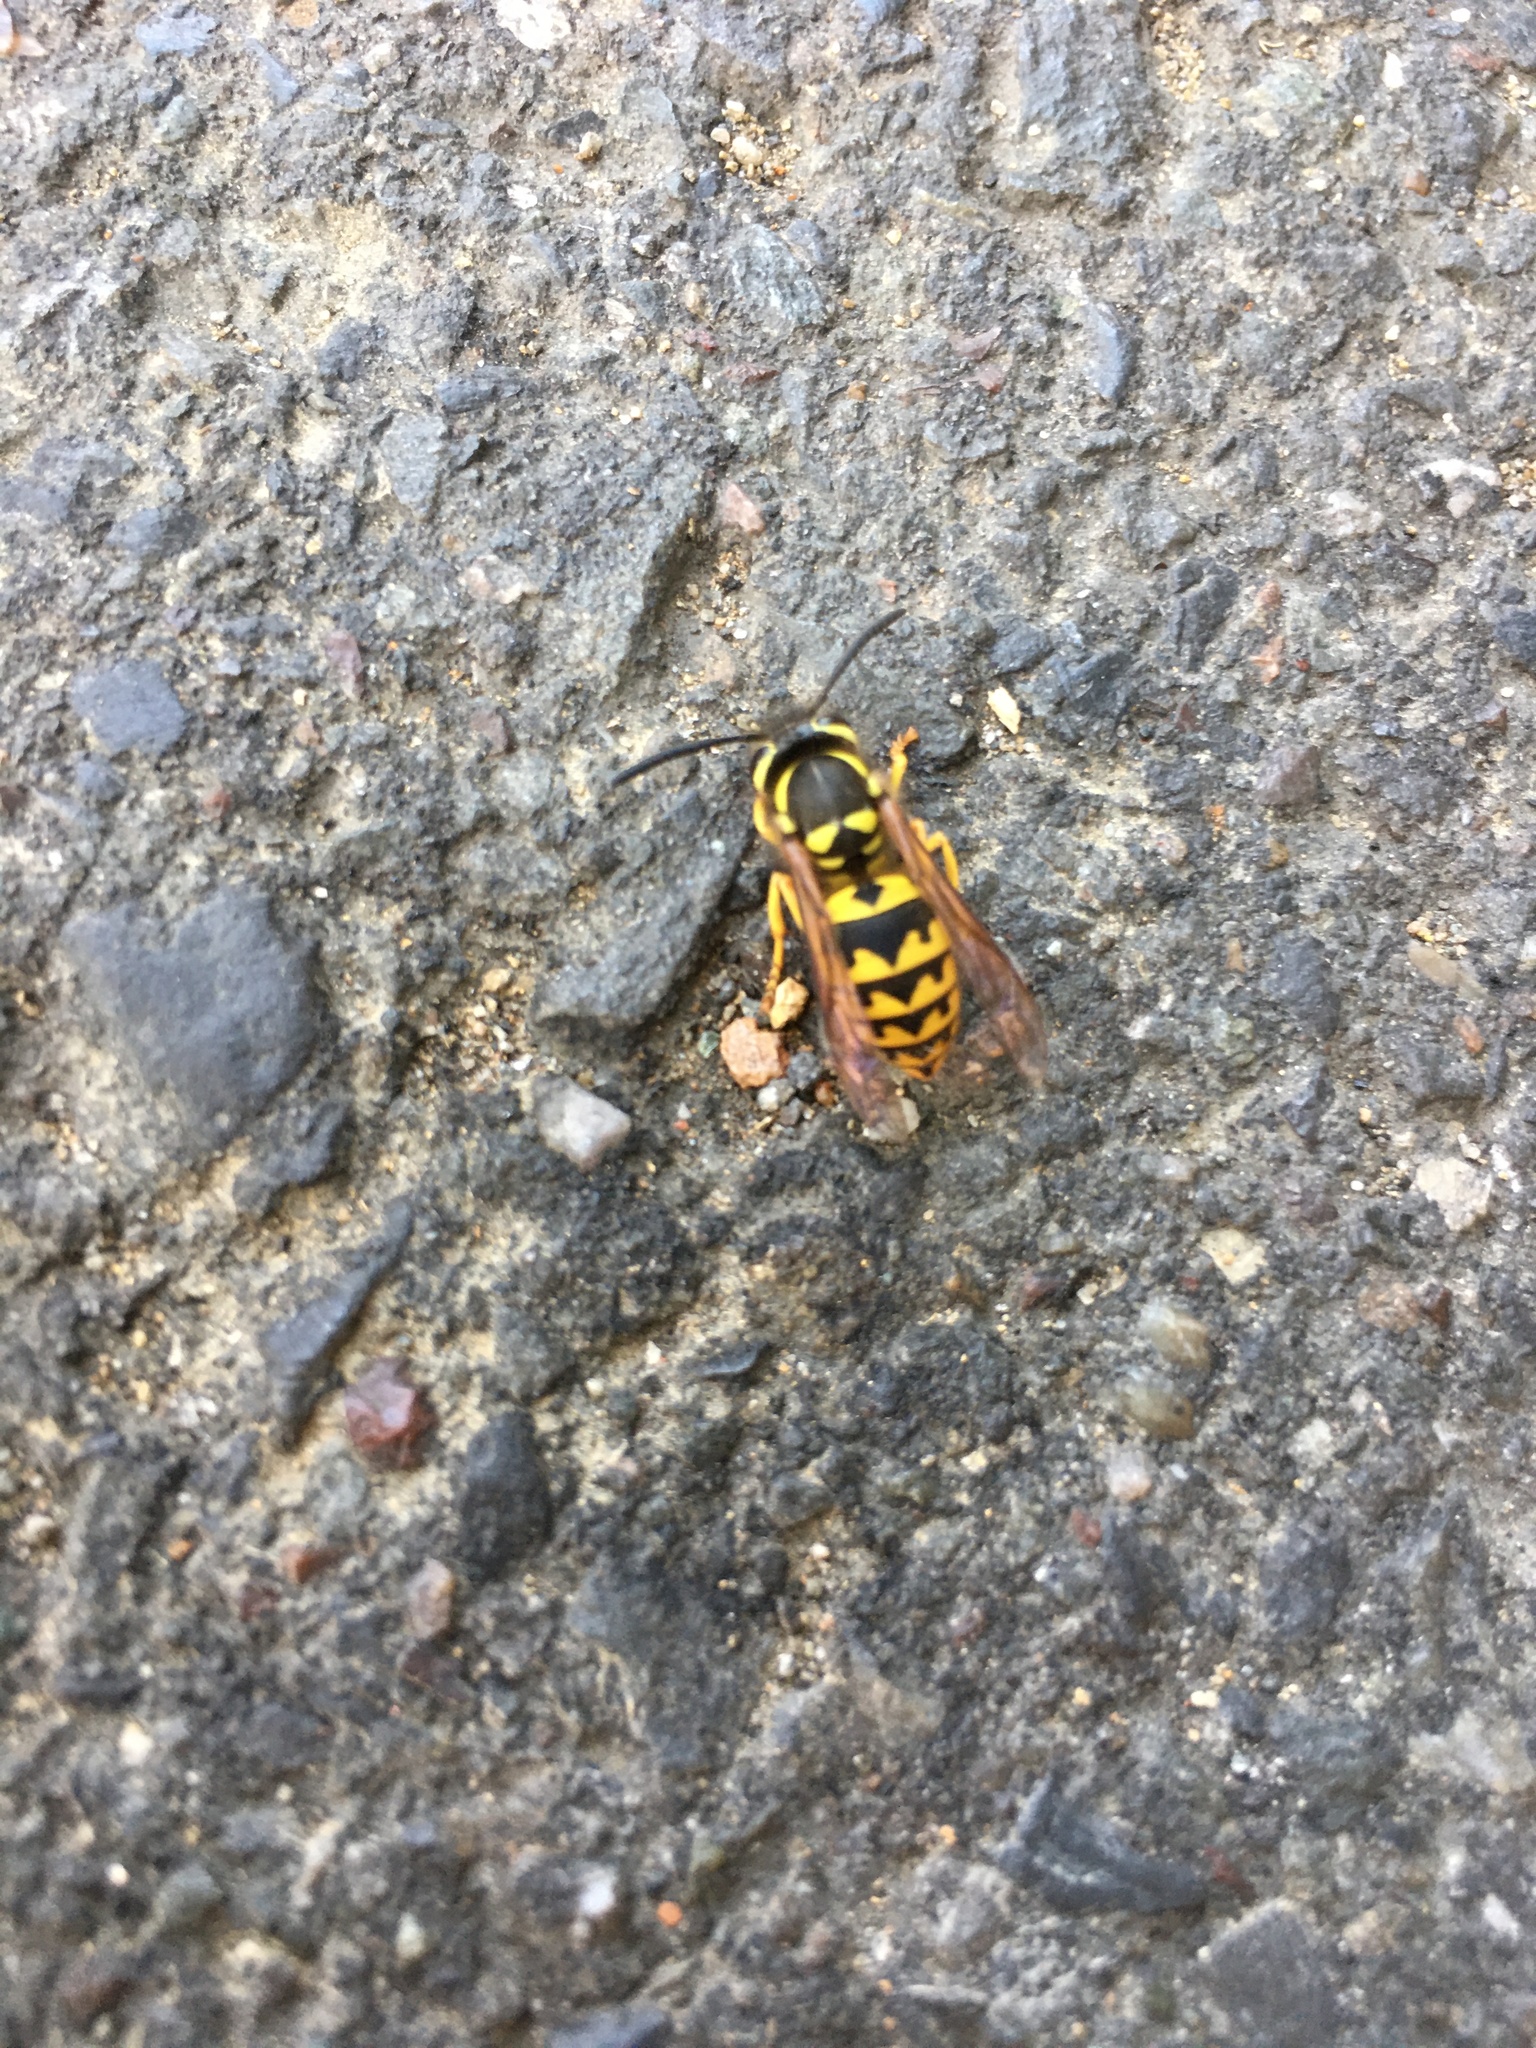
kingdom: Animalia
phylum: Arthropoda
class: Insecta
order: Hymenoptera
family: Vespidae
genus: Vespula
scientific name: Vespula pensylvanica
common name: Western yellowjacket
